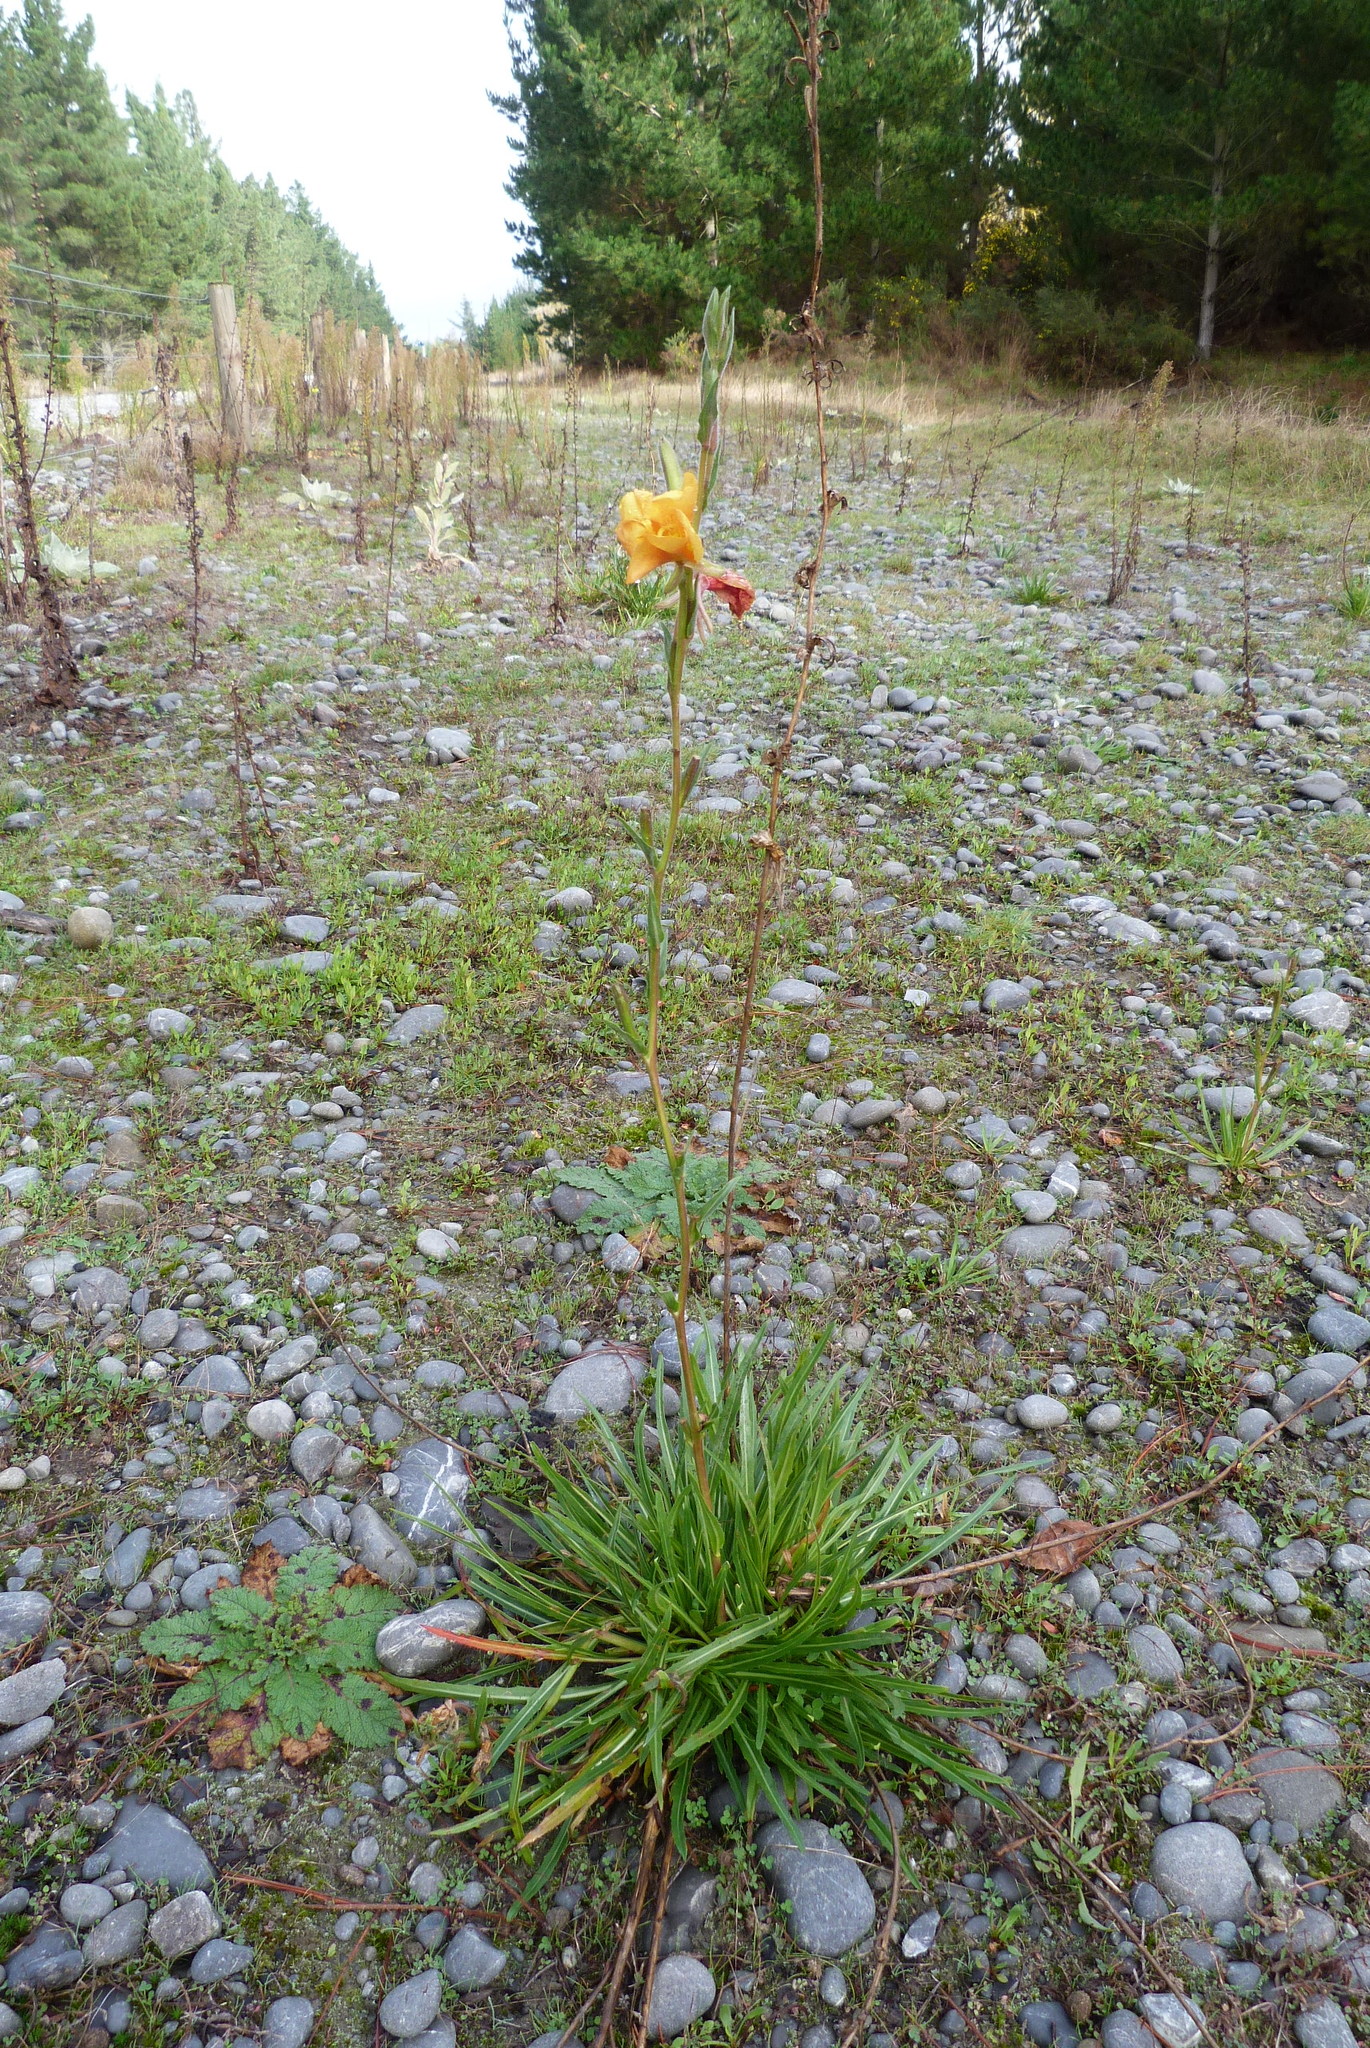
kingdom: Plantae
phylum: Tracheophyta
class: Magnoliopsida
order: Myrtales
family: Onagraceae
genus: Oenothera
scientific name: Oenothera stricta
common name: Fragrant evening-primrose
